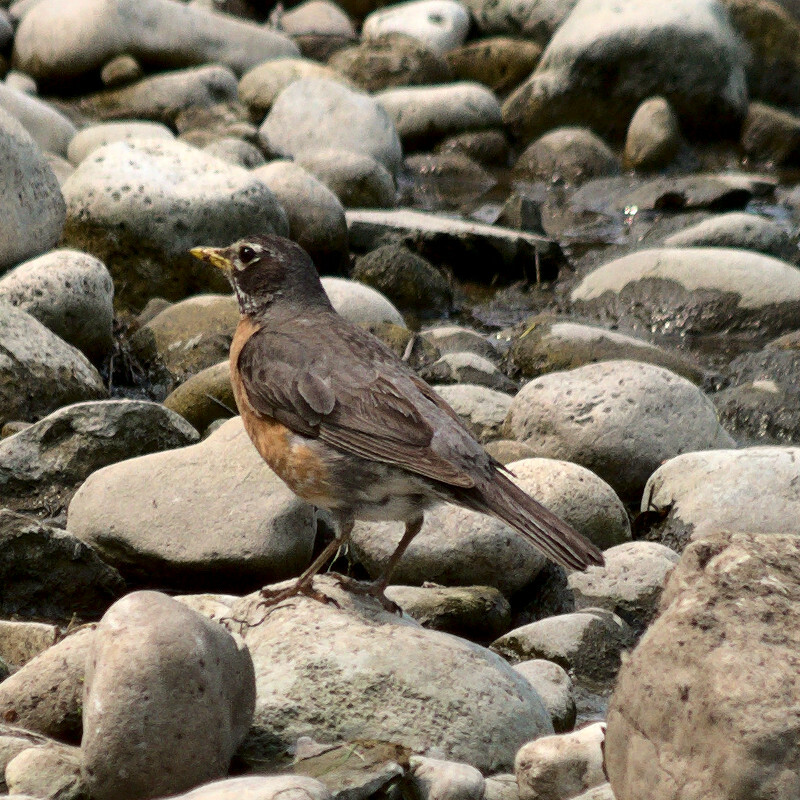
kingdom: Animalia
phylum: Chordata
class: Aves
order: Passeriformes
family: Turdidae
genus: Turdus
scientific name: Turdus migratorius
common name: American robin
